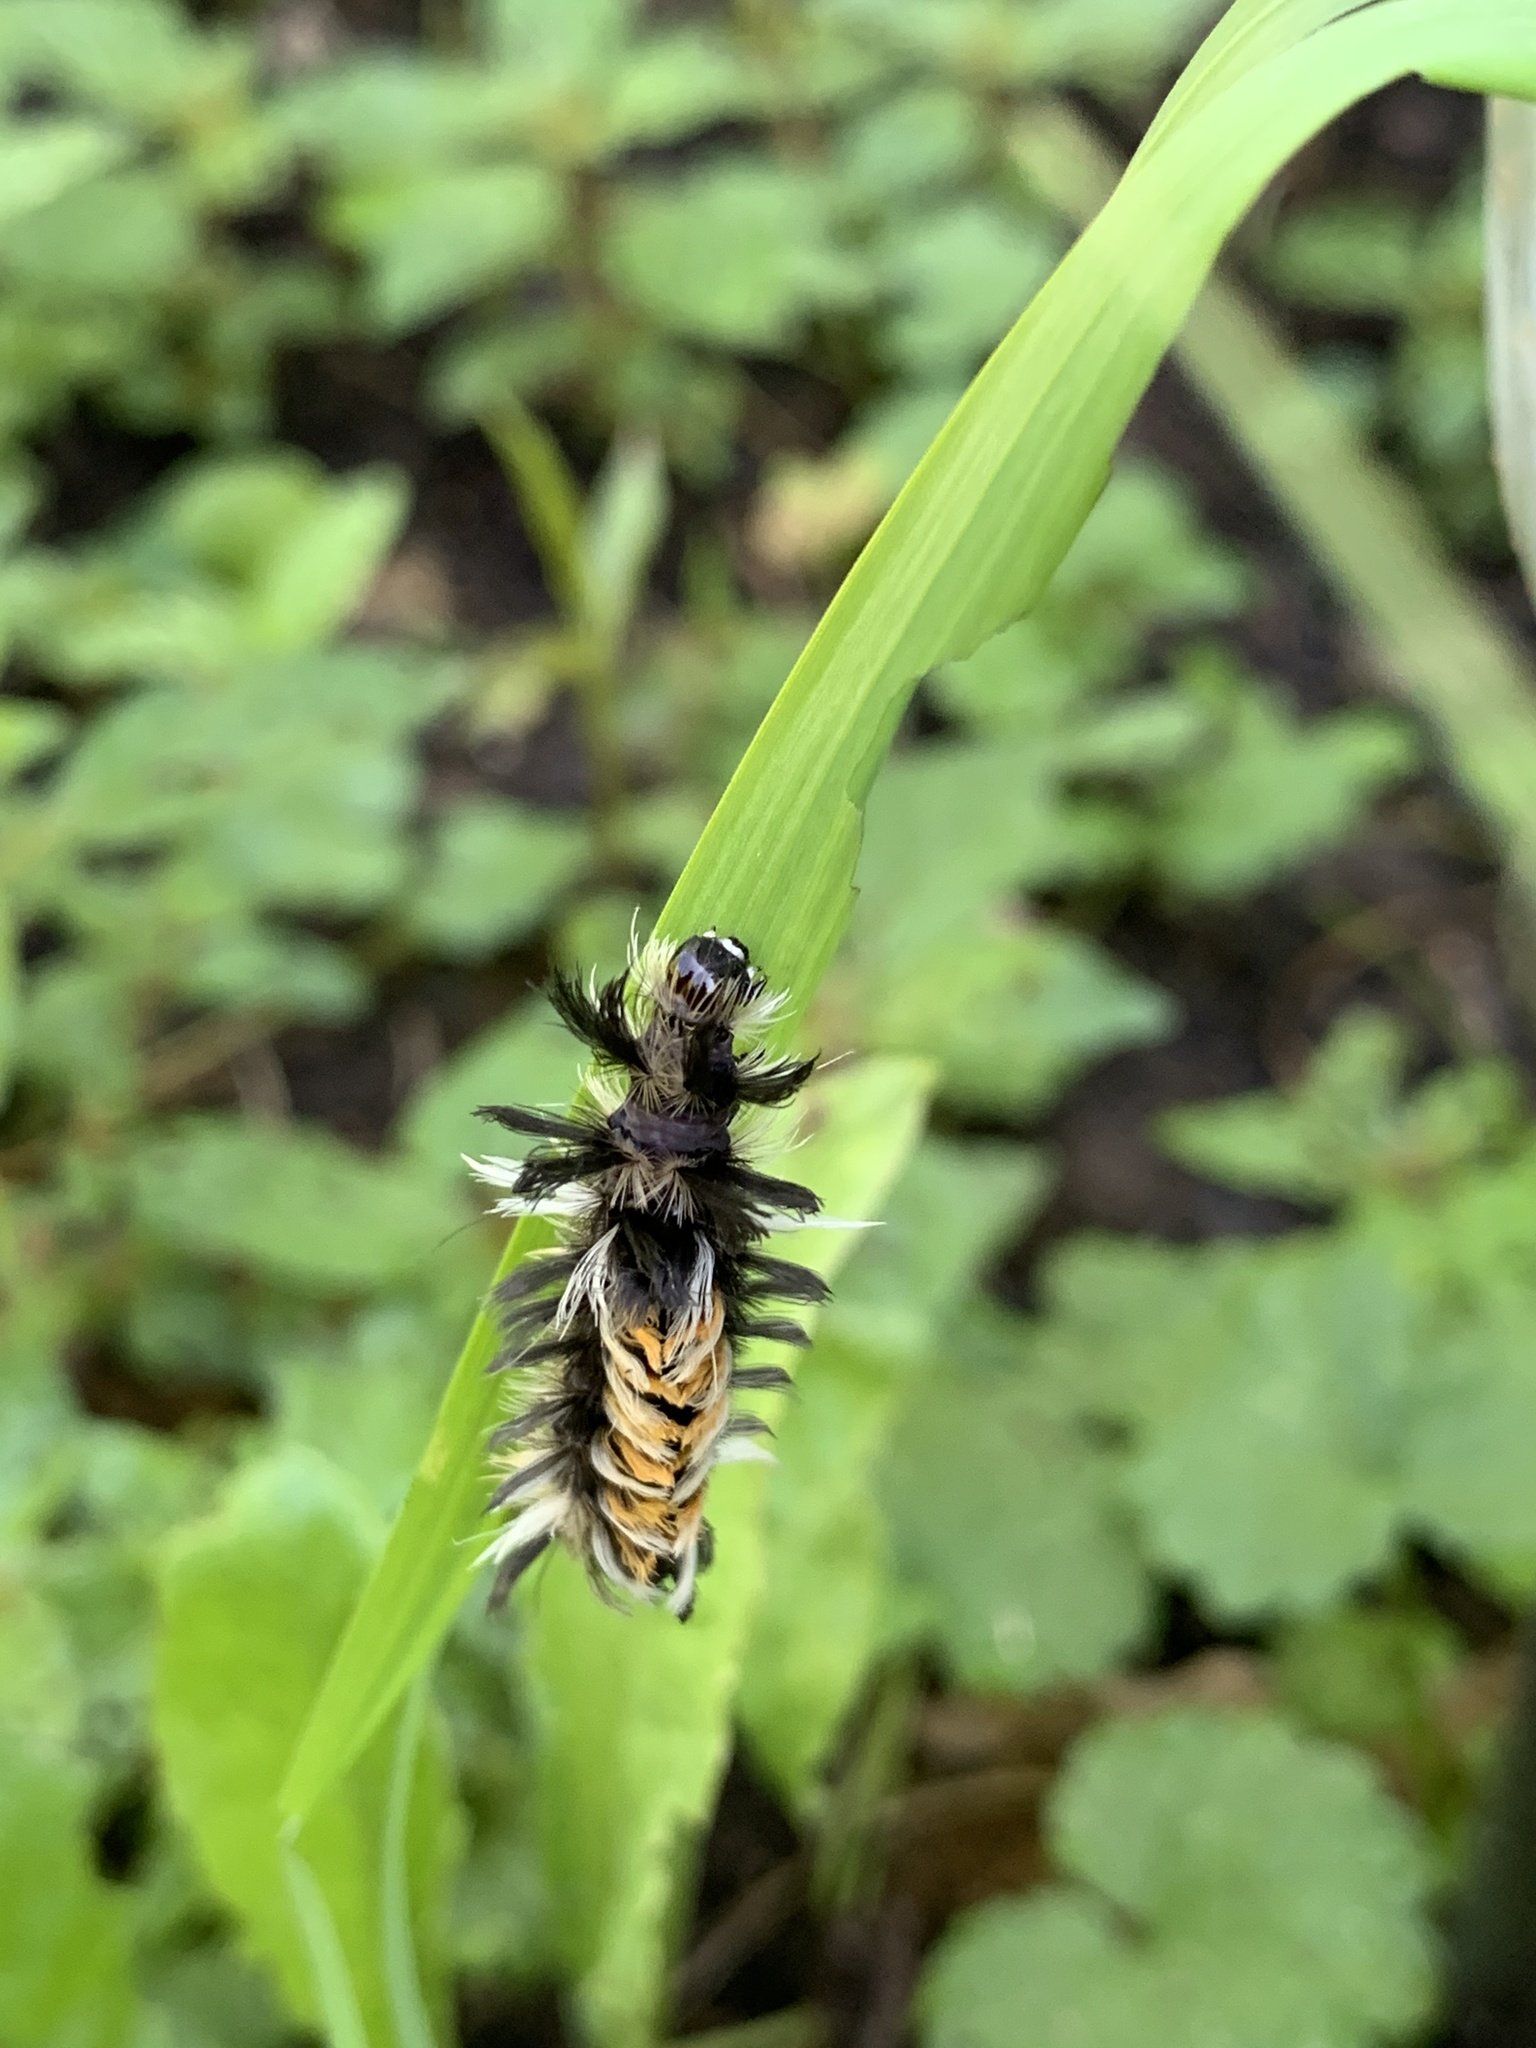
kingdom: Animalia
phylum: Arthropoda
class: Insecta
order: Lepidoptera
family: Erebidae
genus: Euchaetes
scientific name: Euchaetes egle
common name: Milkweed tussock moth
